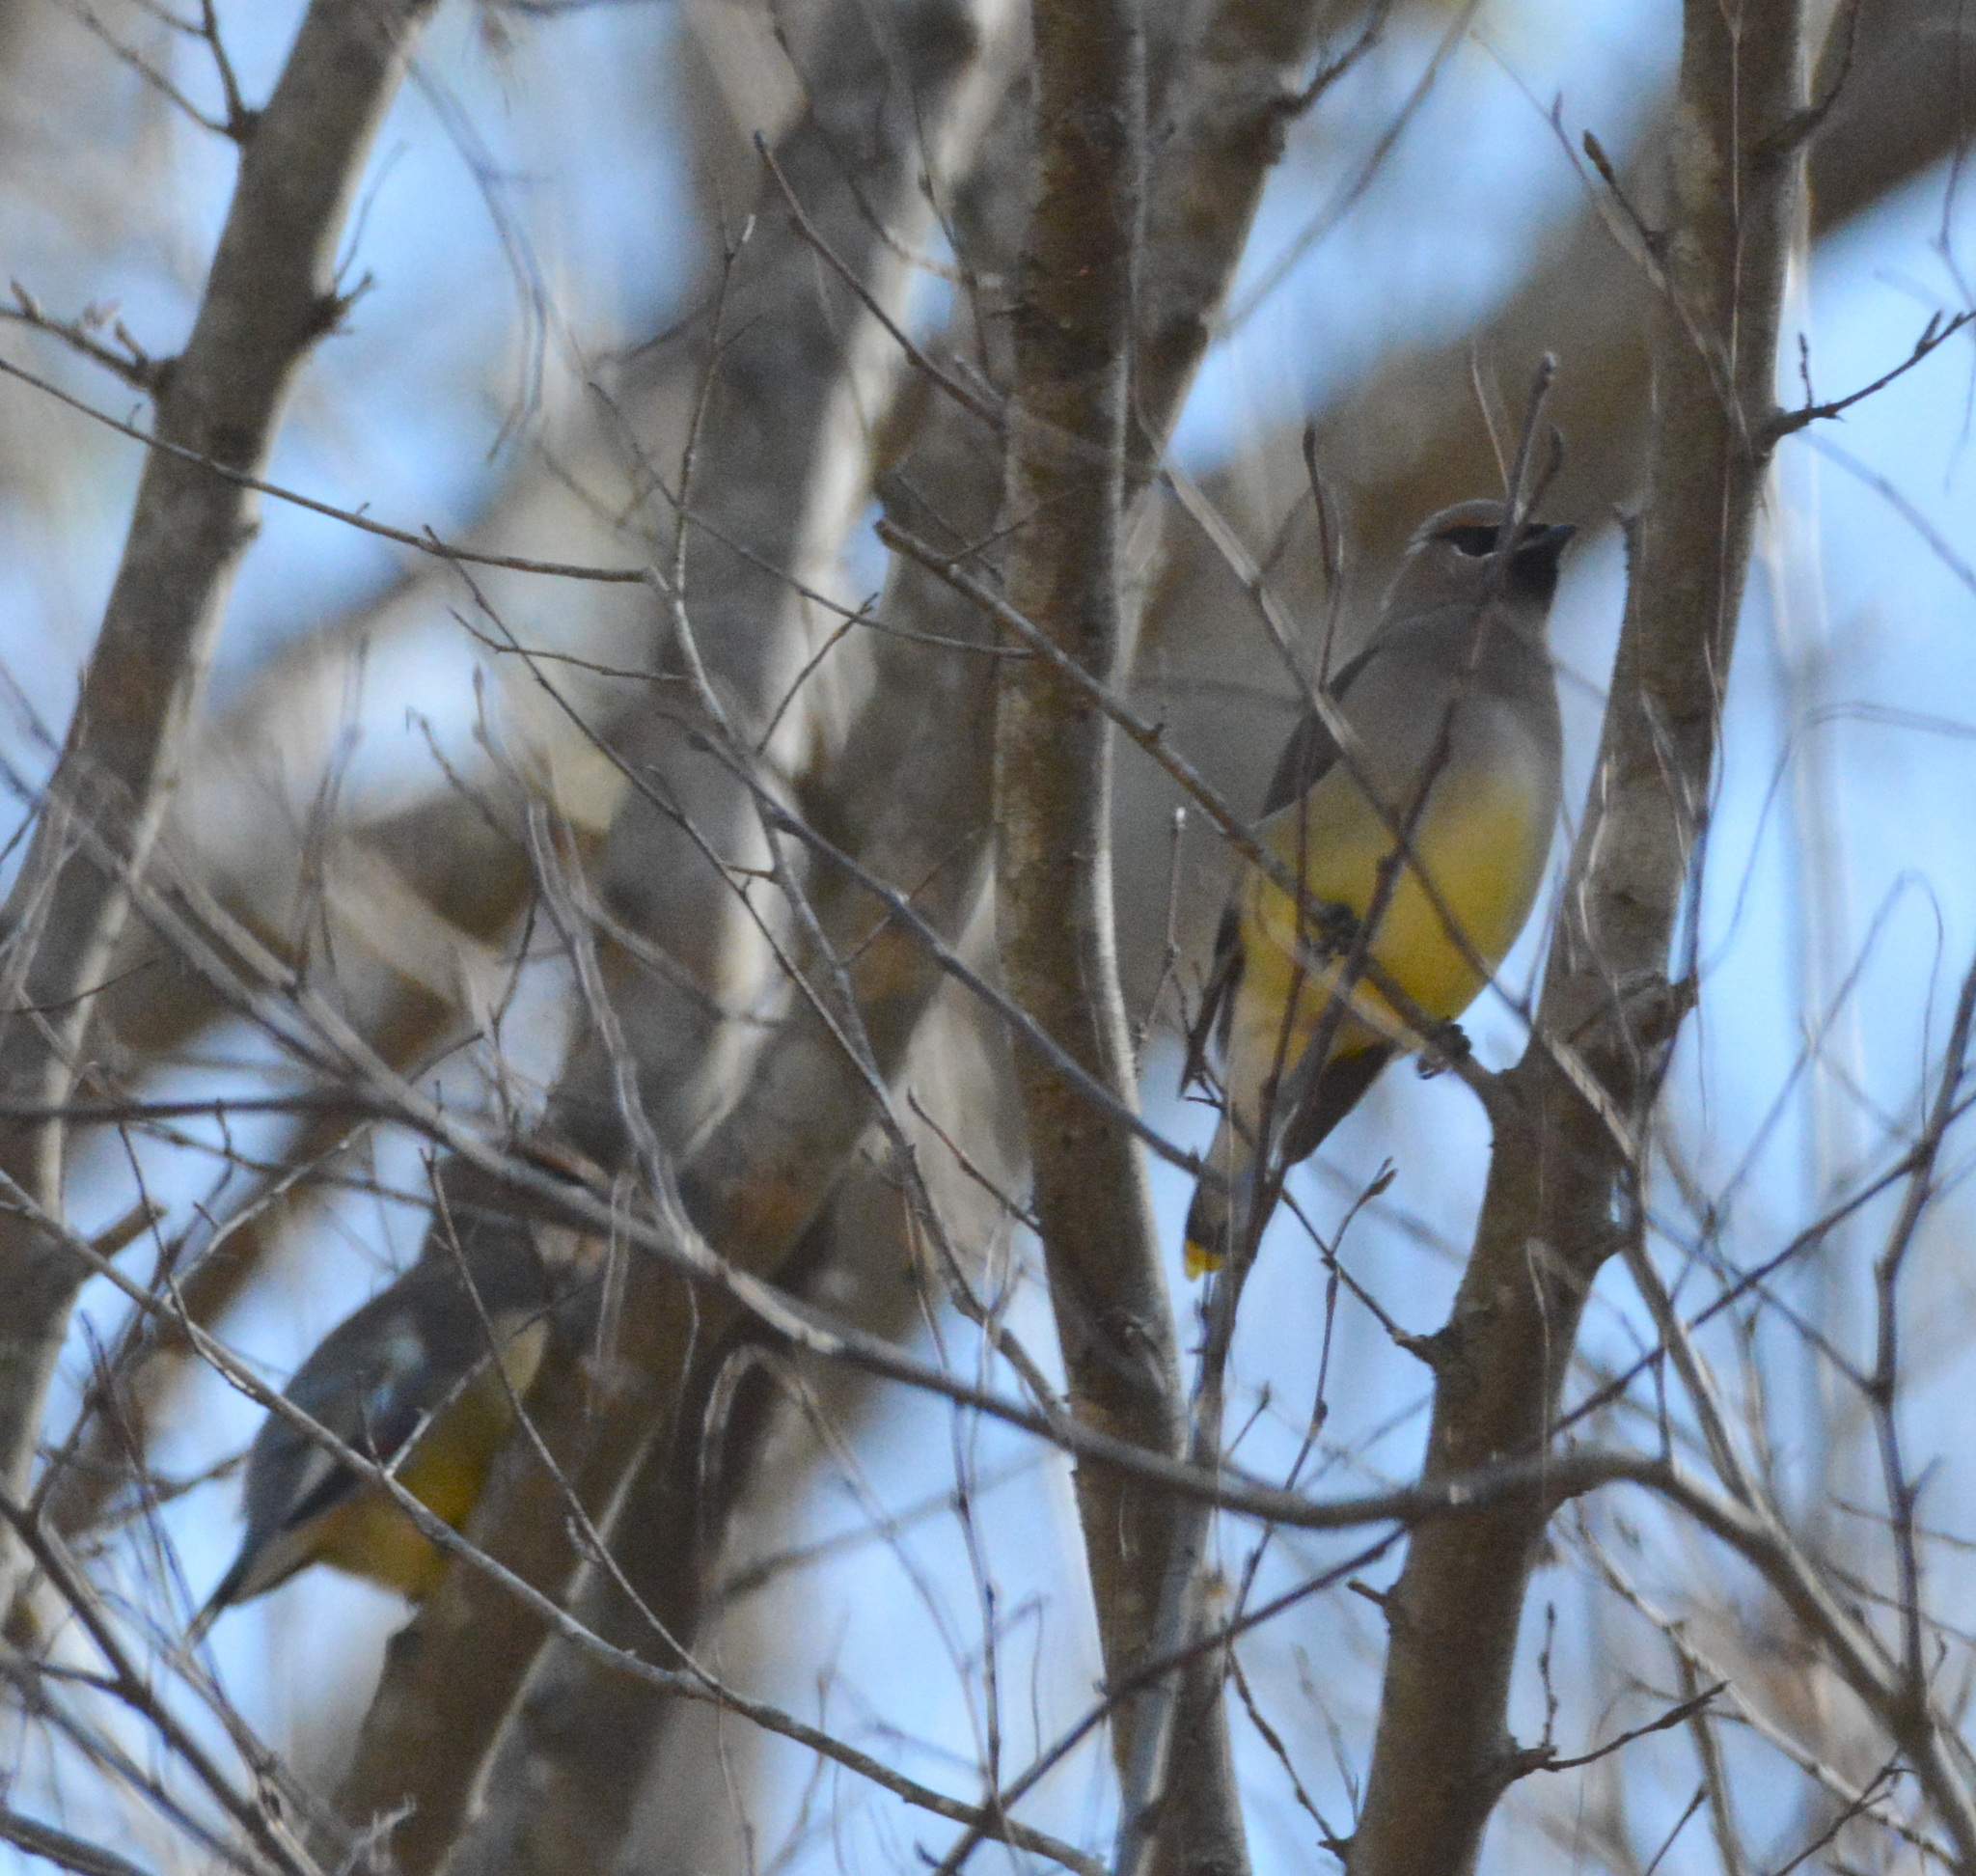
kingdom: Animalia
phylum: Chordata
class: Aves
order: Passeriformes
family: Bombycillidae
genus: Bombycilla
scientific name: Bombycilla cedrorum
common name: Cedar waxwing
